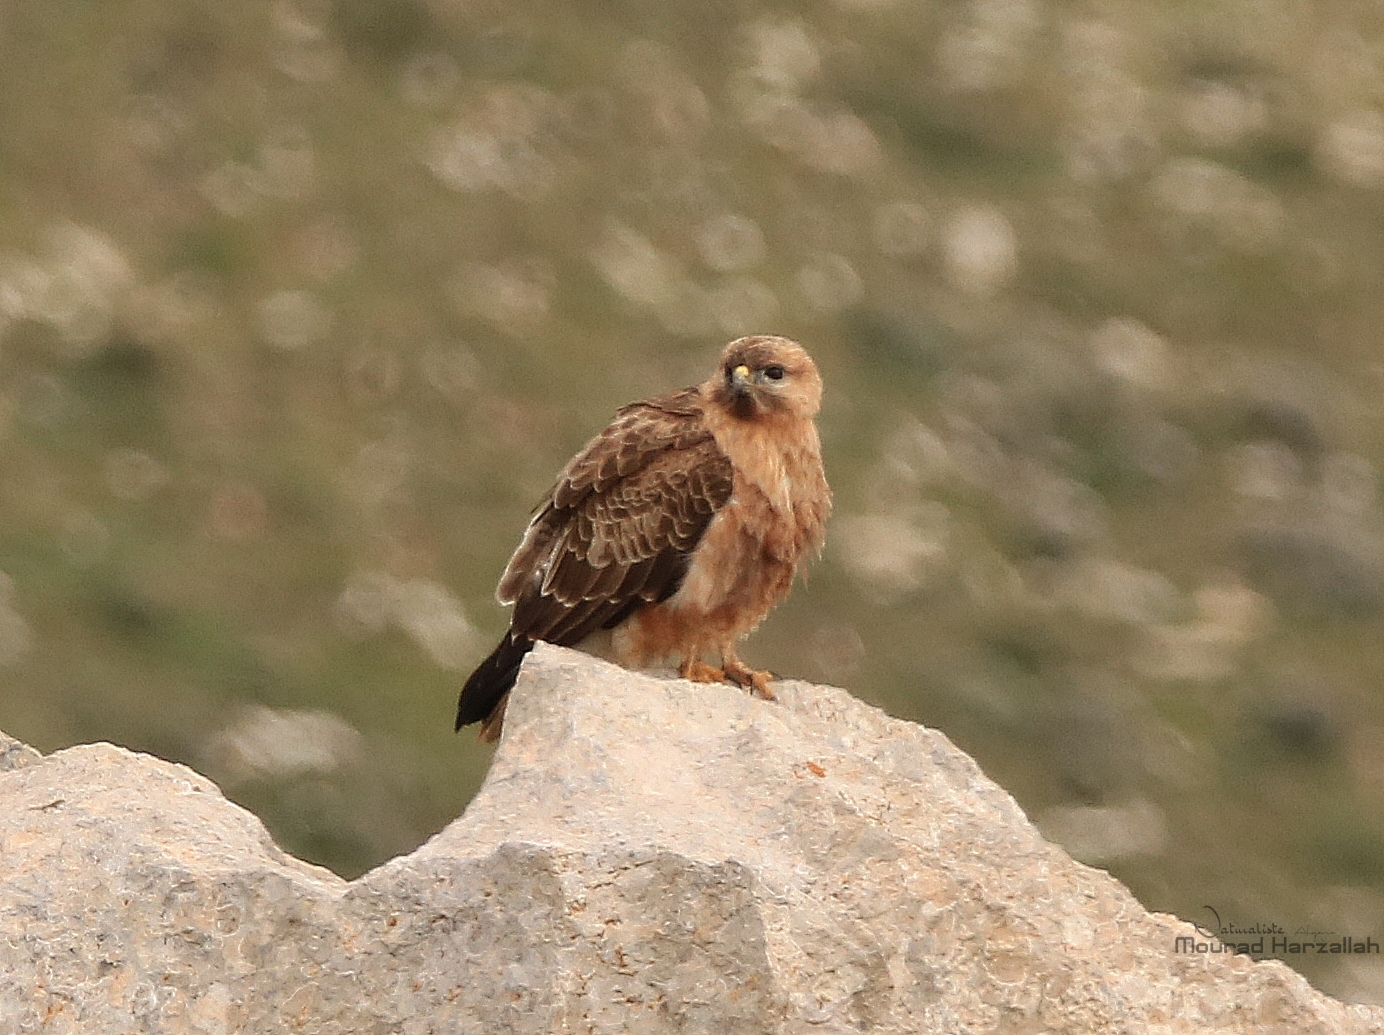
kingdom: Animalia
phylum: Chordata
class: Aves
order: Accipitriformes
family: Accipitridae
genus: Buteo
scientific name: Buteo rufinus
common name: Long-legged buzzard
